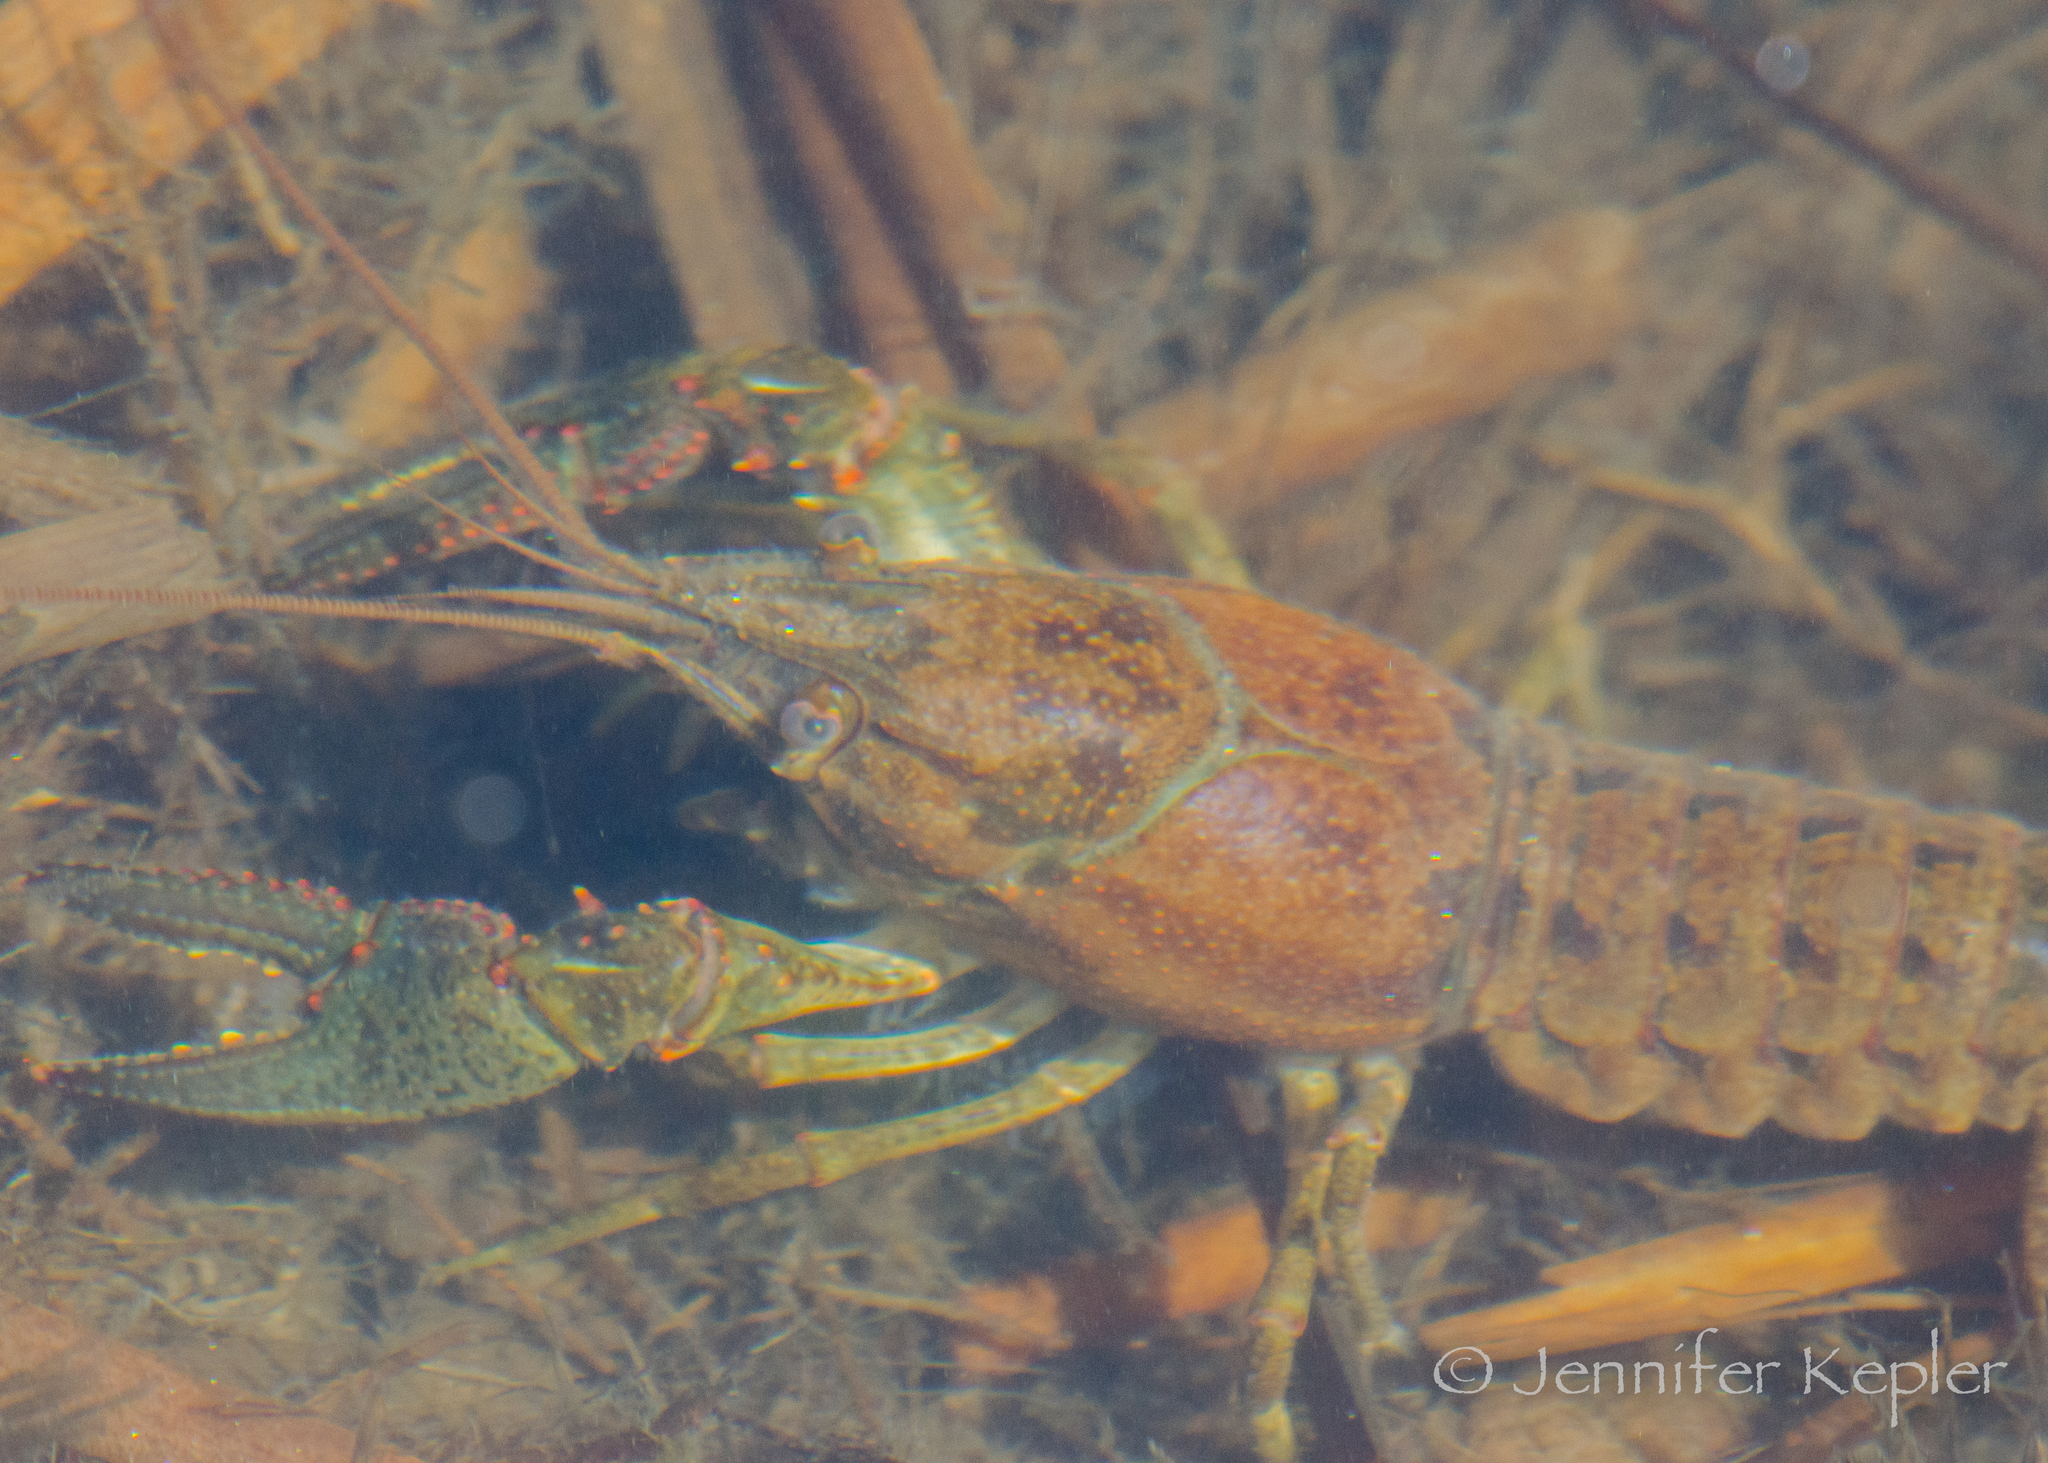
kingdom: Animalia
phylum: Arthropoda
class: Malacostraca
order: Decapoda
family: Cambaridae
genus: Faxonius
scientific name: Faxonius virilis
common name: Virile crayfish
